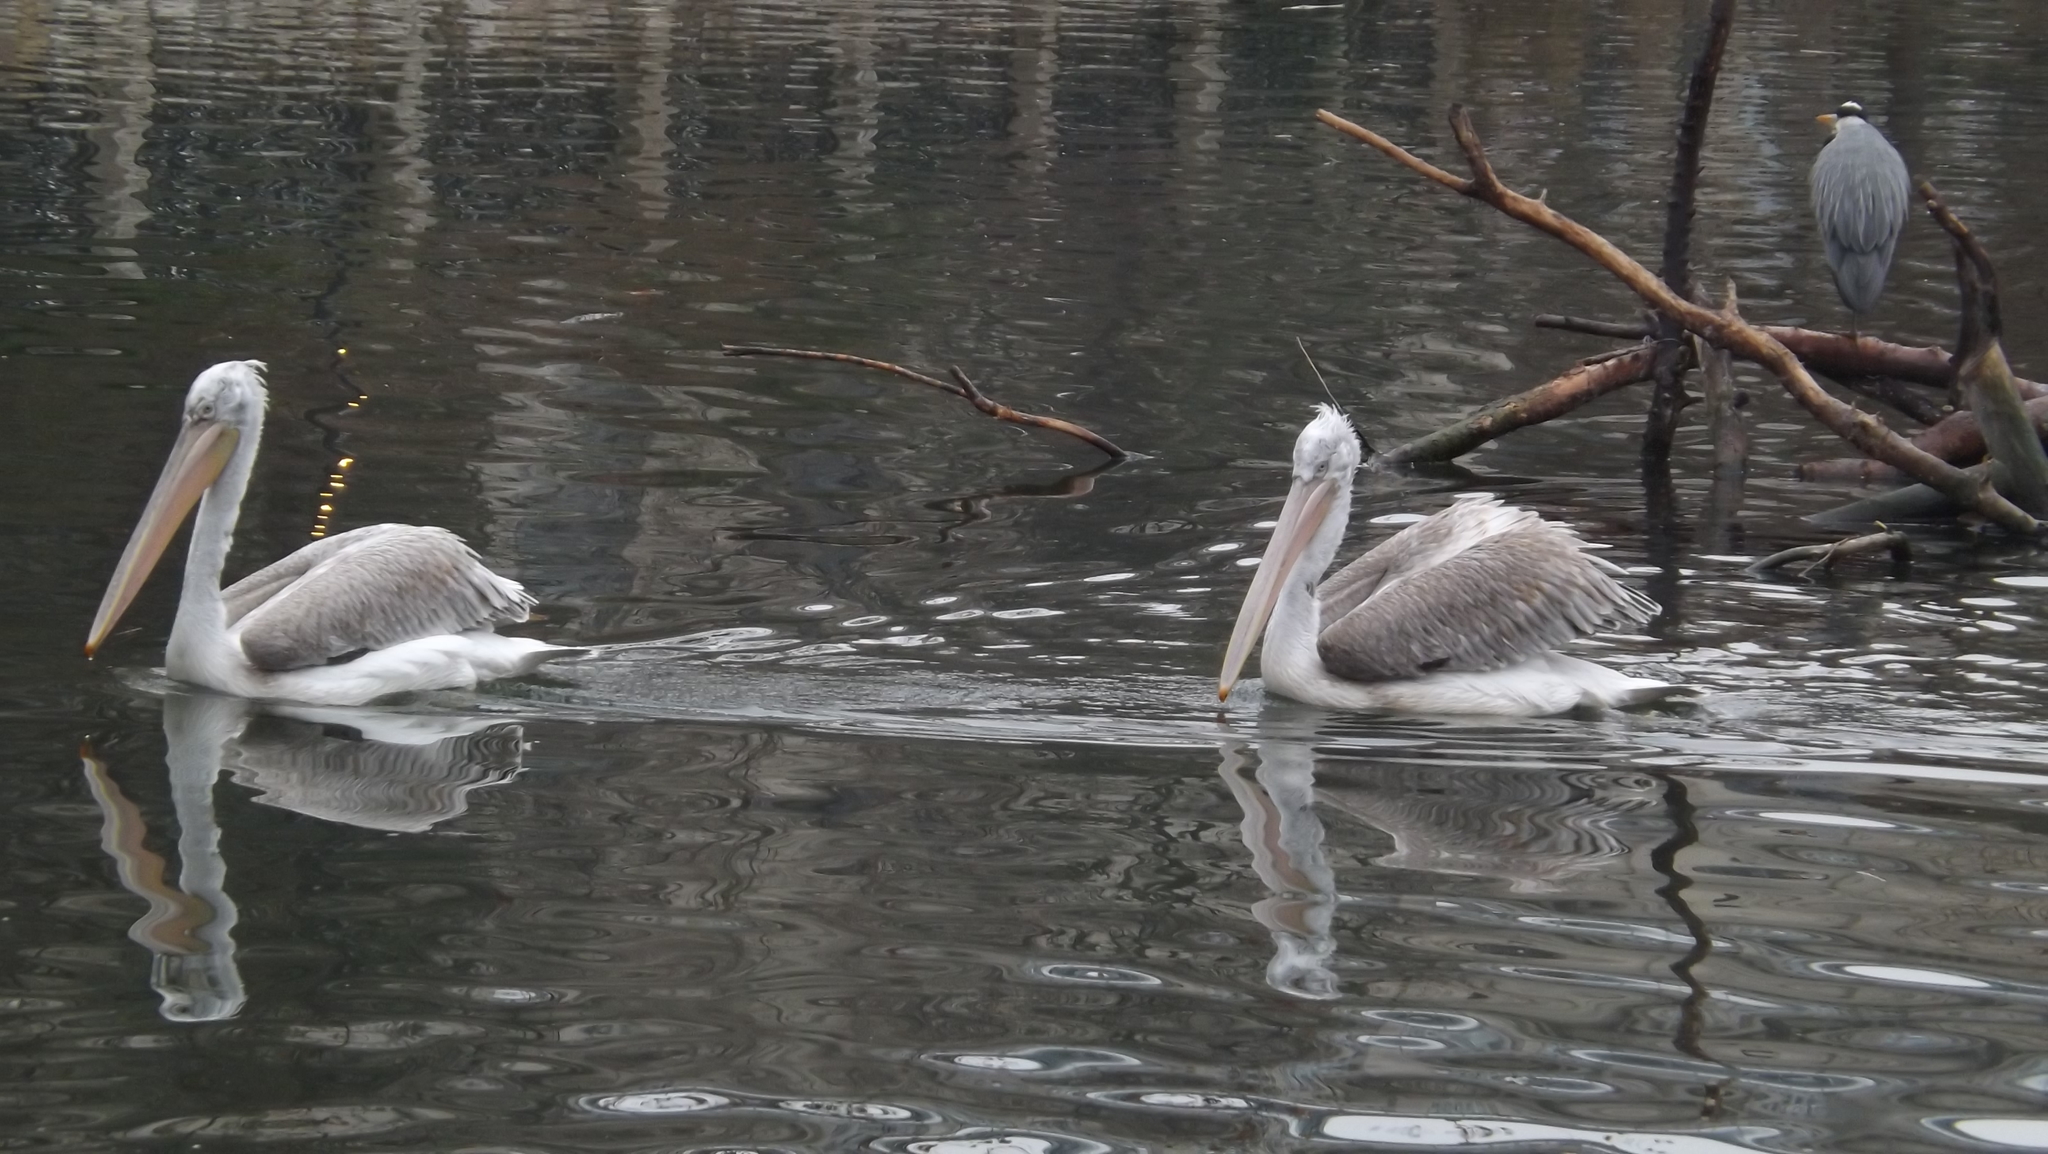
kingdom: Animalia
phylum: Chordata
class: Aves
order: Pelecaniformes
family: Pelecanidae
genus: Pelecanus
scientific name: Pelecanus crispus
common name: Dalmatian pelican
